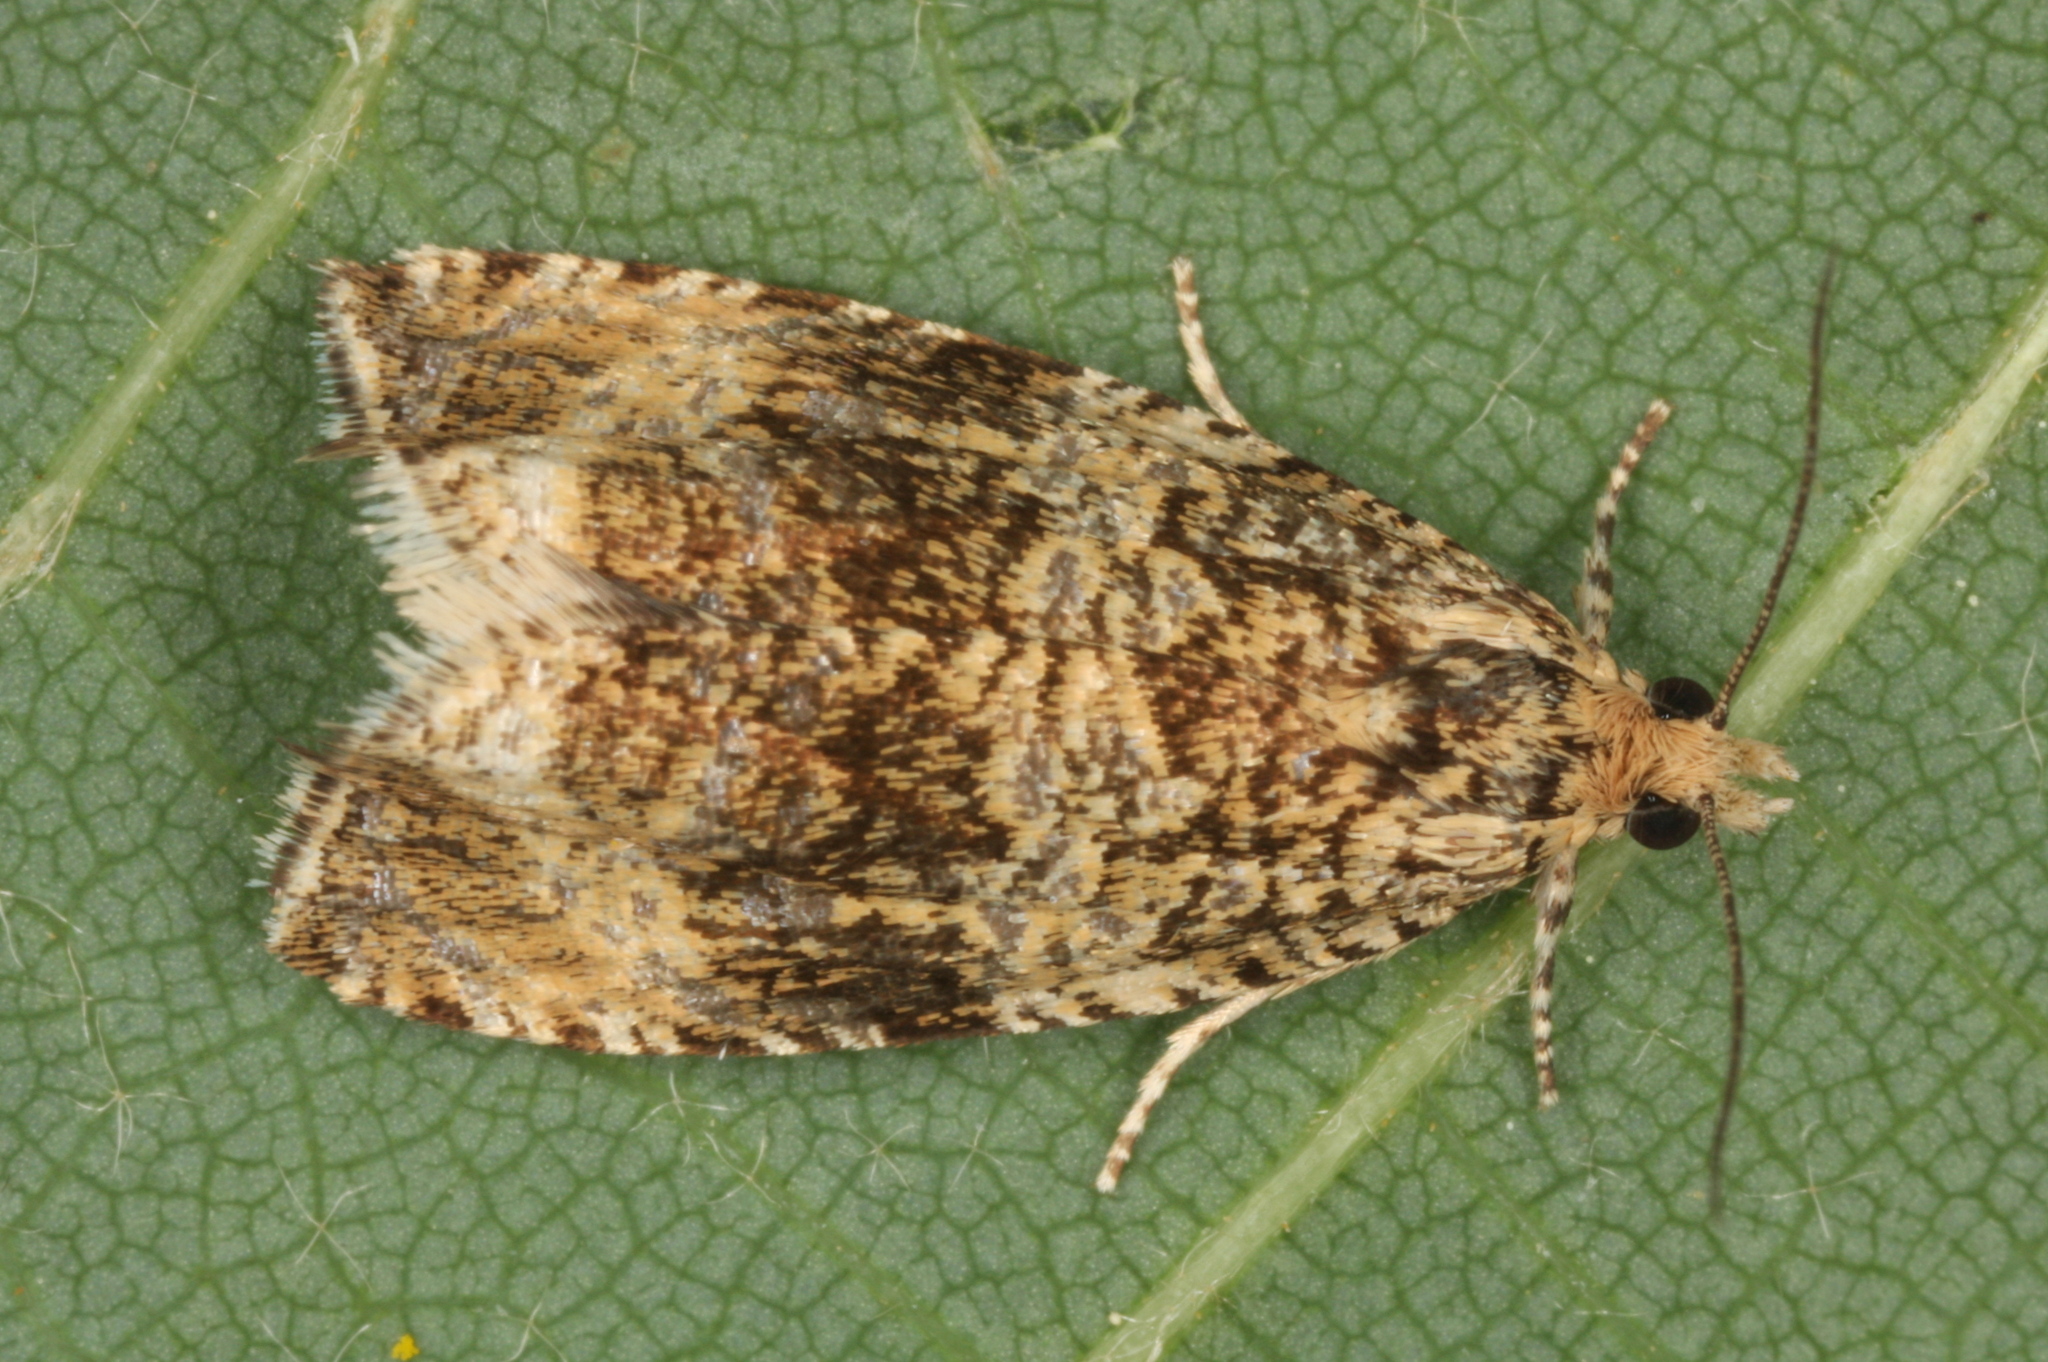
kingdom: Animalia
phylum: Arthropoda
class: Insecta
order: Lepidoptera
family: Tortricidae
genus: Syricoris
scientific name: Syricoris lacunana
